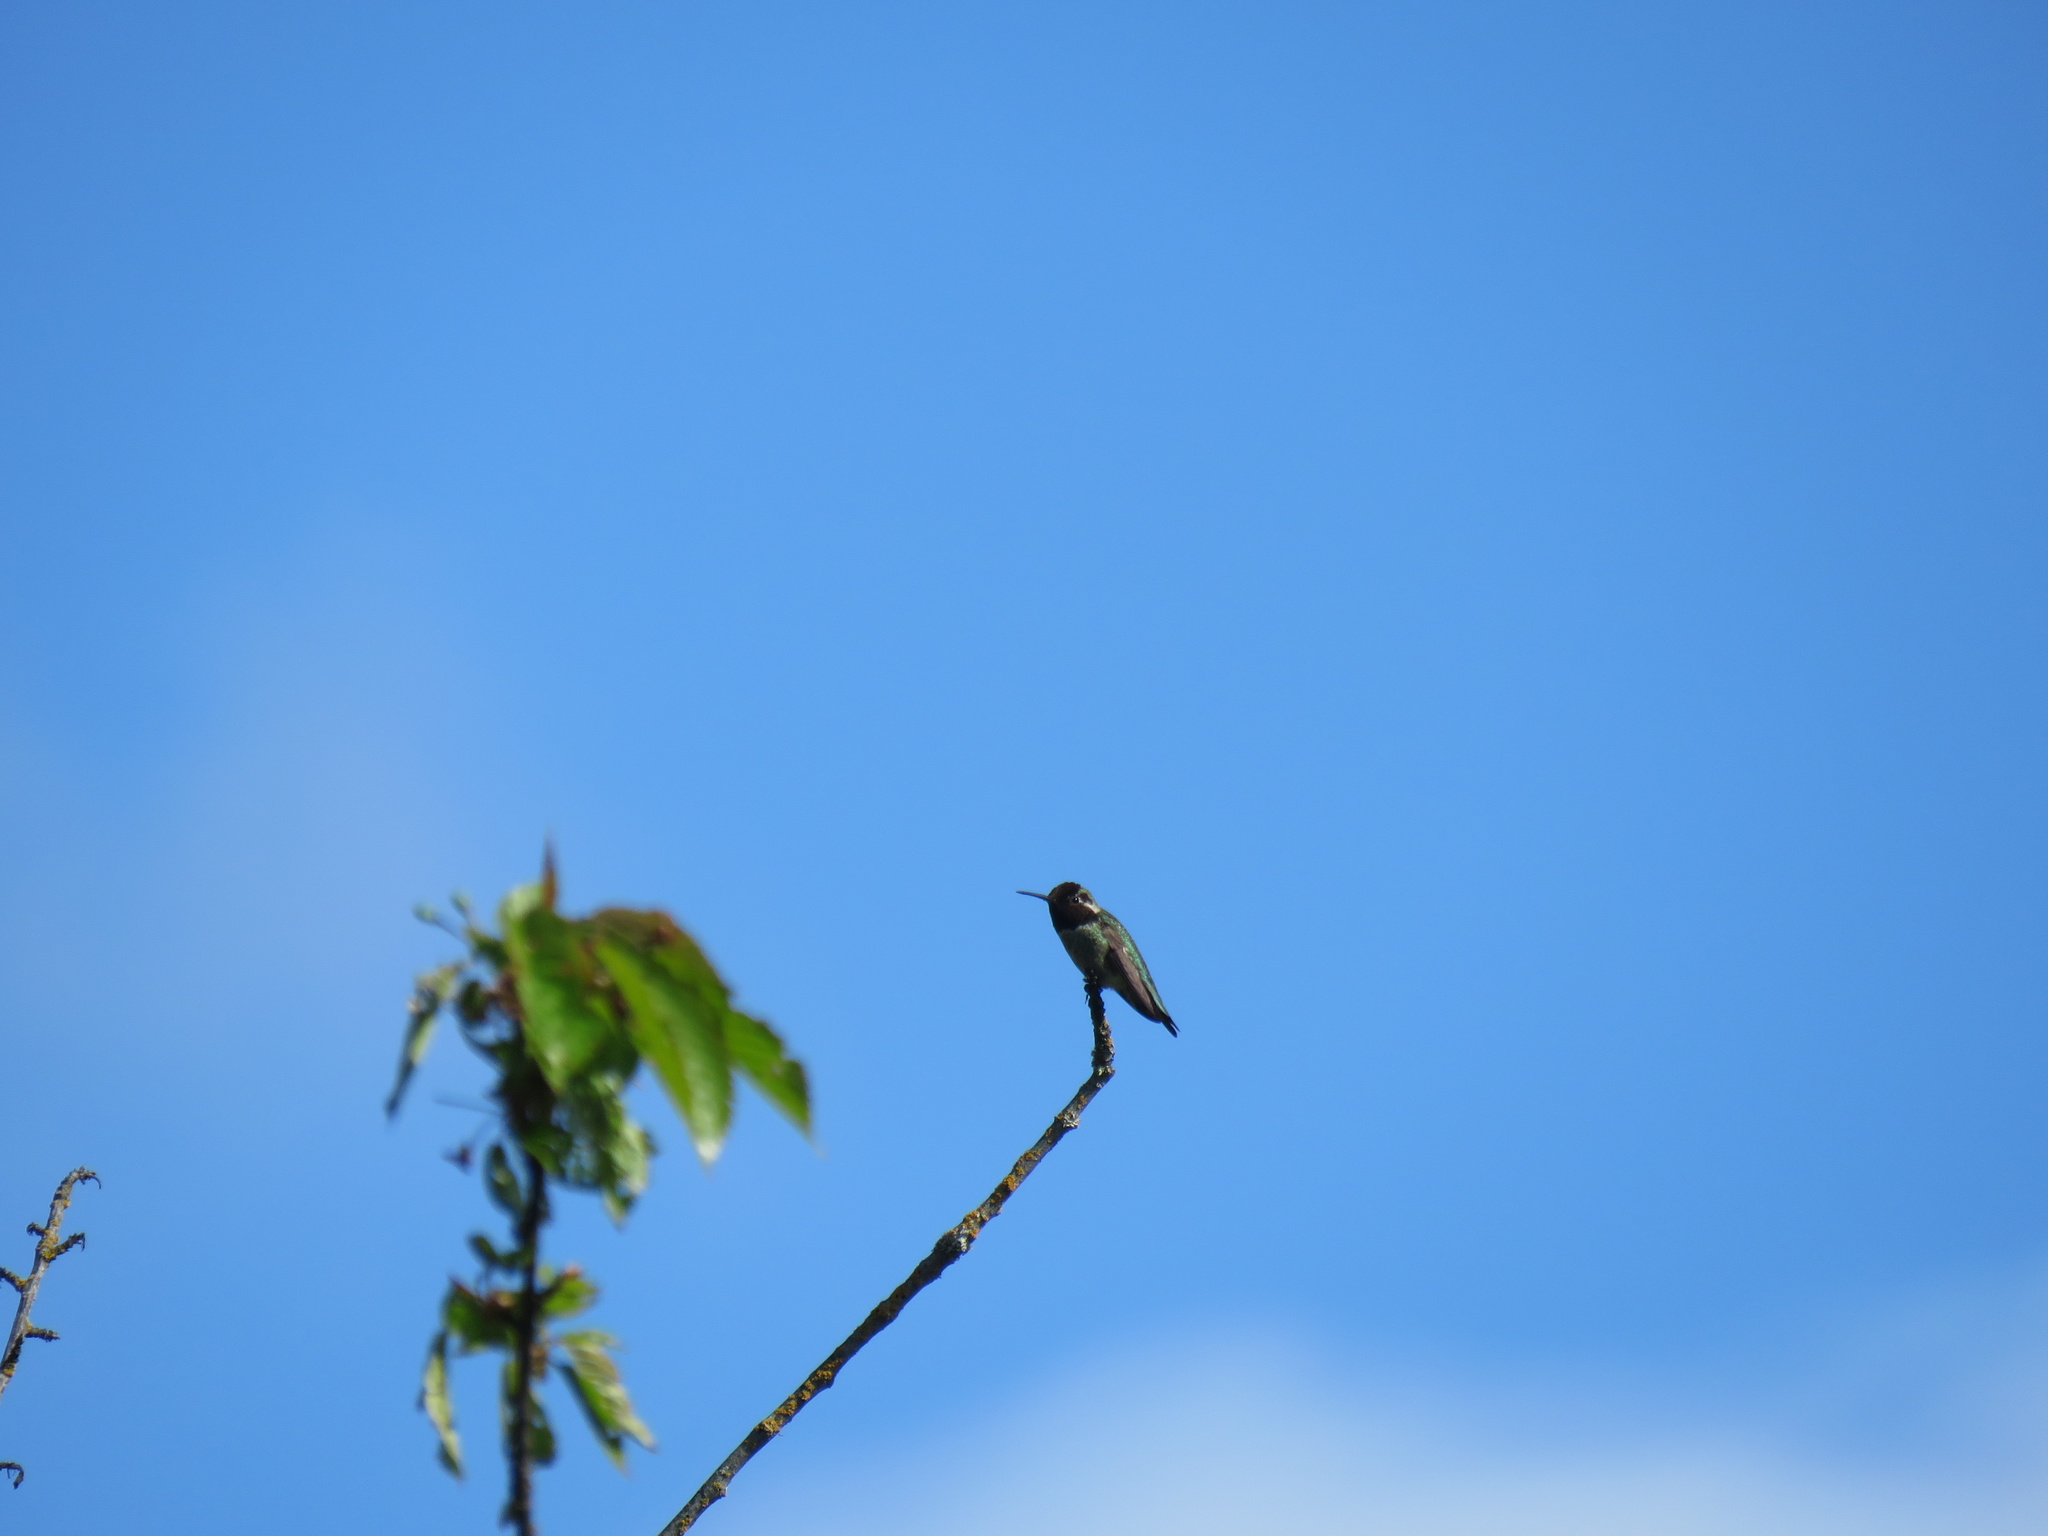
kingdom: Animalia
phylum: Chordata
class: Aves
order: Apodiformes
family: Trochilidae
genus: Calypte
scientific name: Calypte anna
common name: Anna's hummingbird
